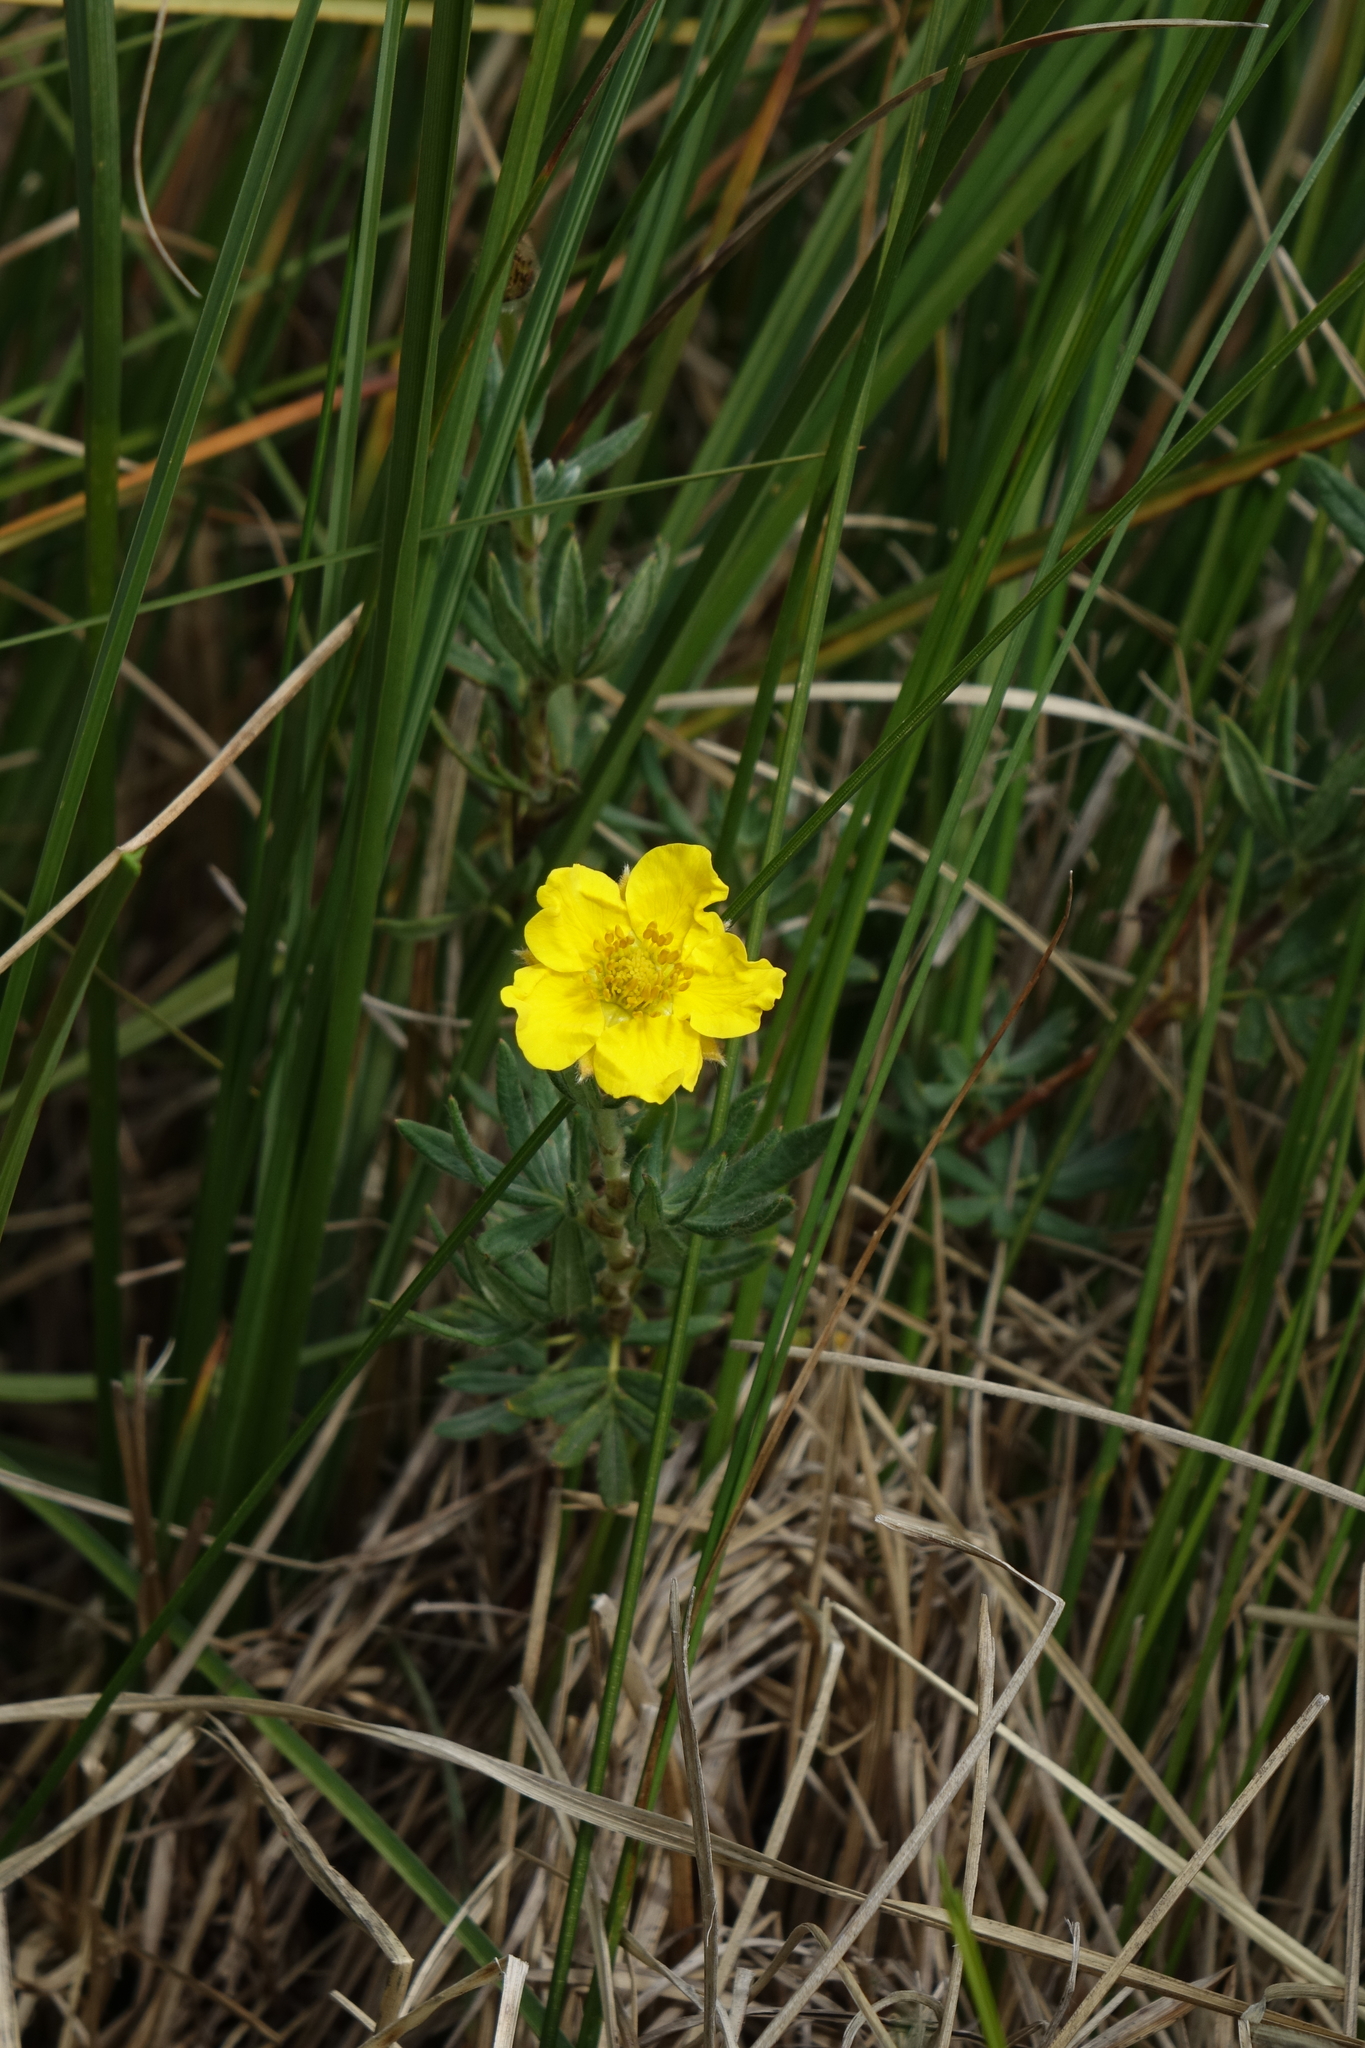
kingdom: Plantae
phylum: Tracheophyta
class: Magnoliopsida
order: Rosales
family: Rosaceae
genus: Dasiphora
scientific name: Dasiphora fruticosa
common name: Shrubby cinquefoil
